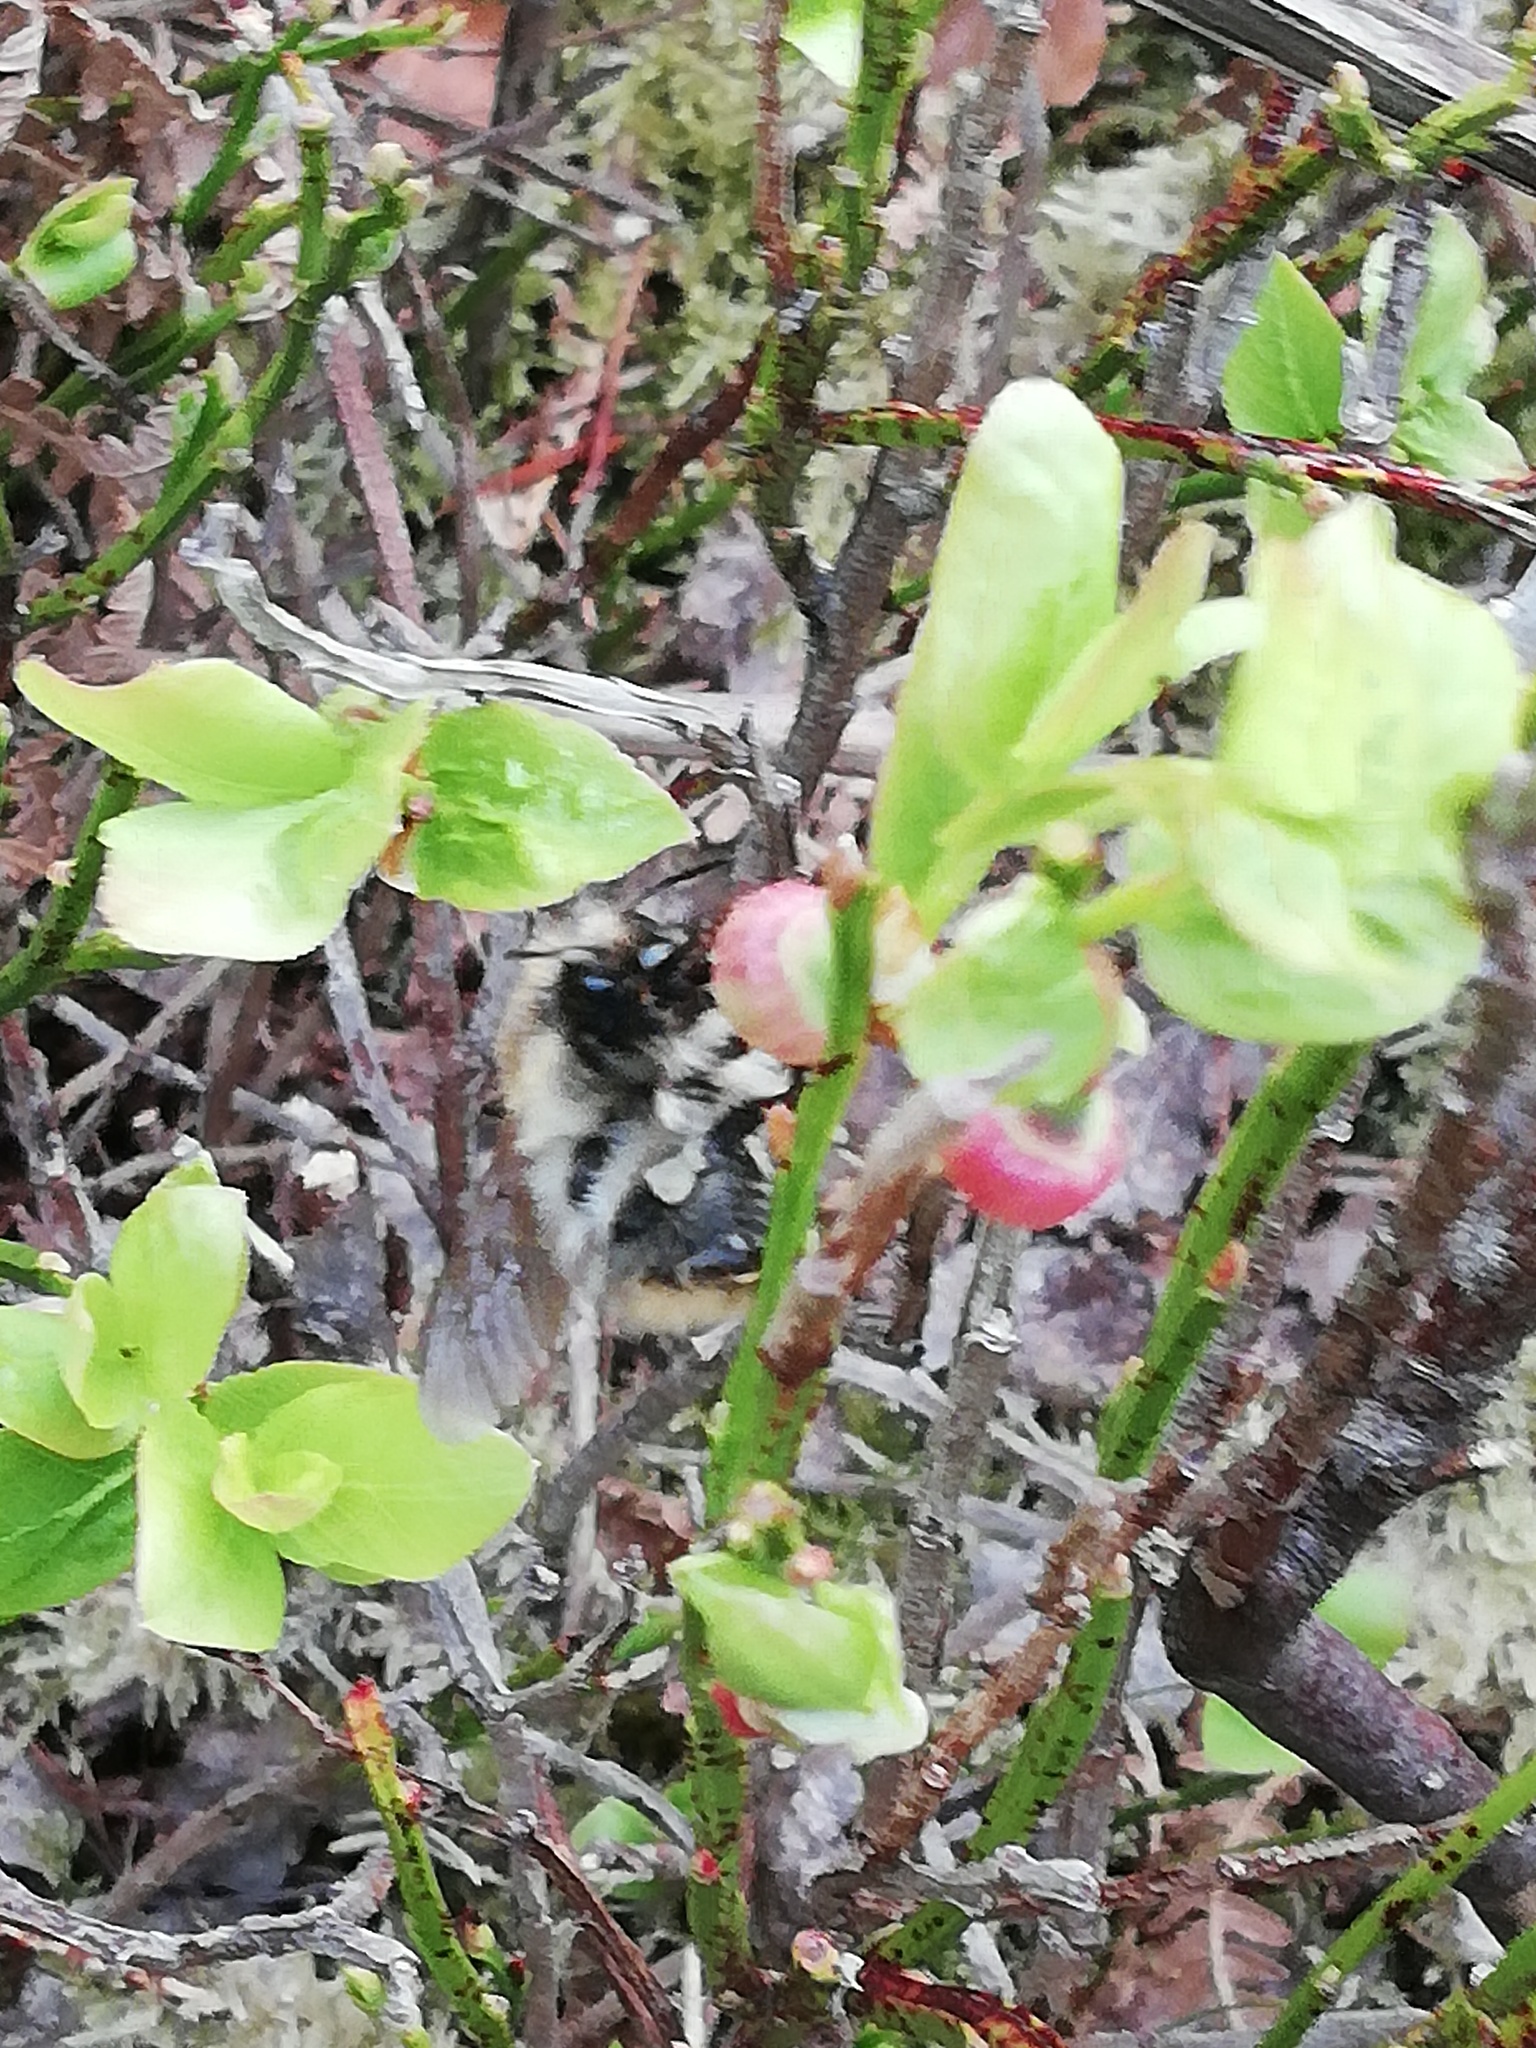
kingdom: Animalia
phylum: Arthropoda
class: Insecta
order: Hymenoptera
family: Apidae
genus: Bombus
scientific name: Bombus pascuorum
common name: Common carder bee
